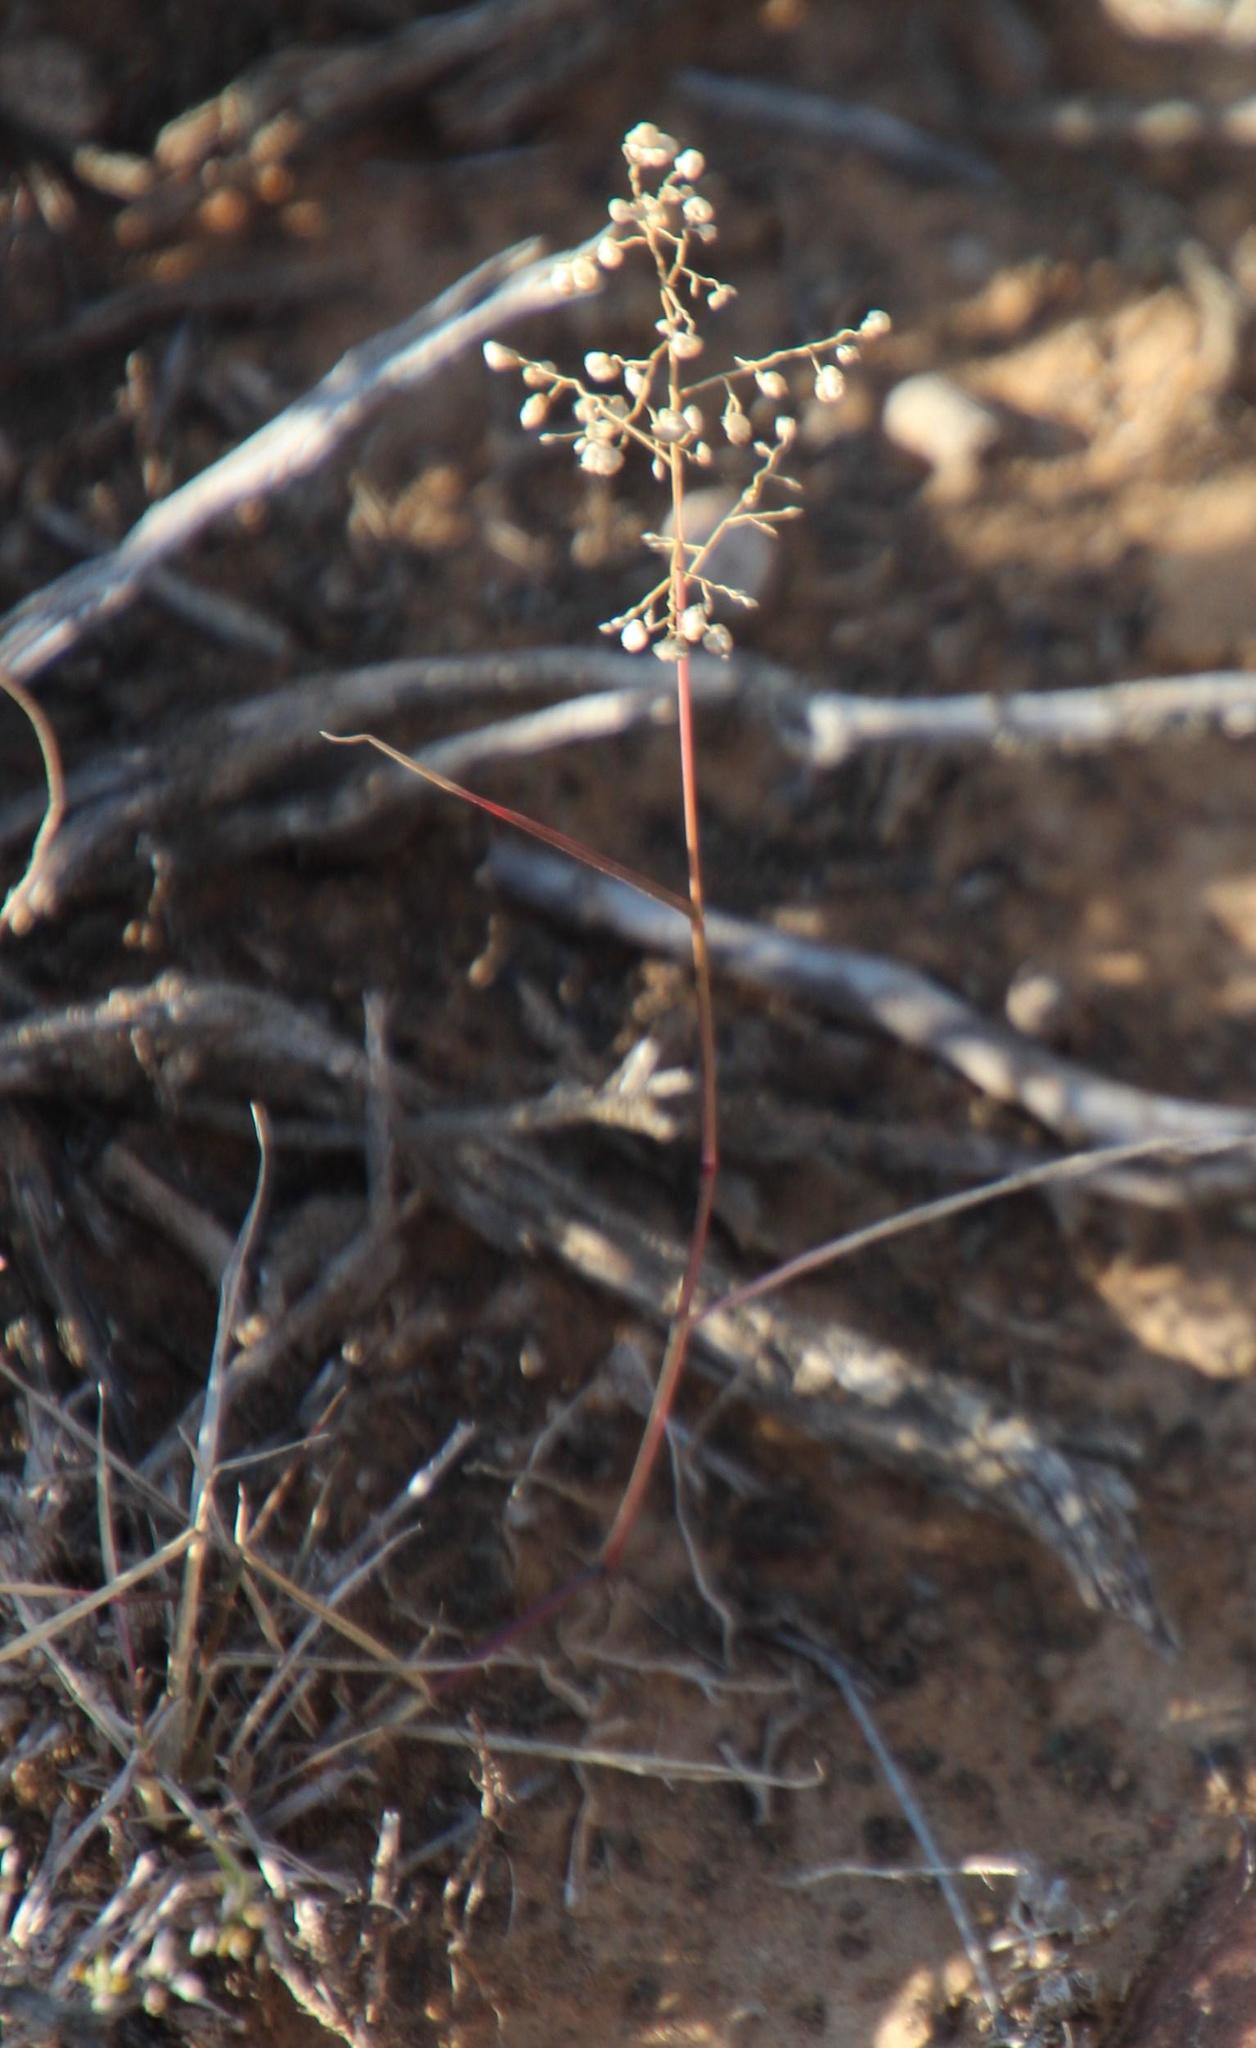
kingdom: Plantae
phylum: Tracheophyta
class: Liliopsida
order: Poales
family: Poaceae
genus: Eragrostis
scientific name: Eragrostis obtusa
